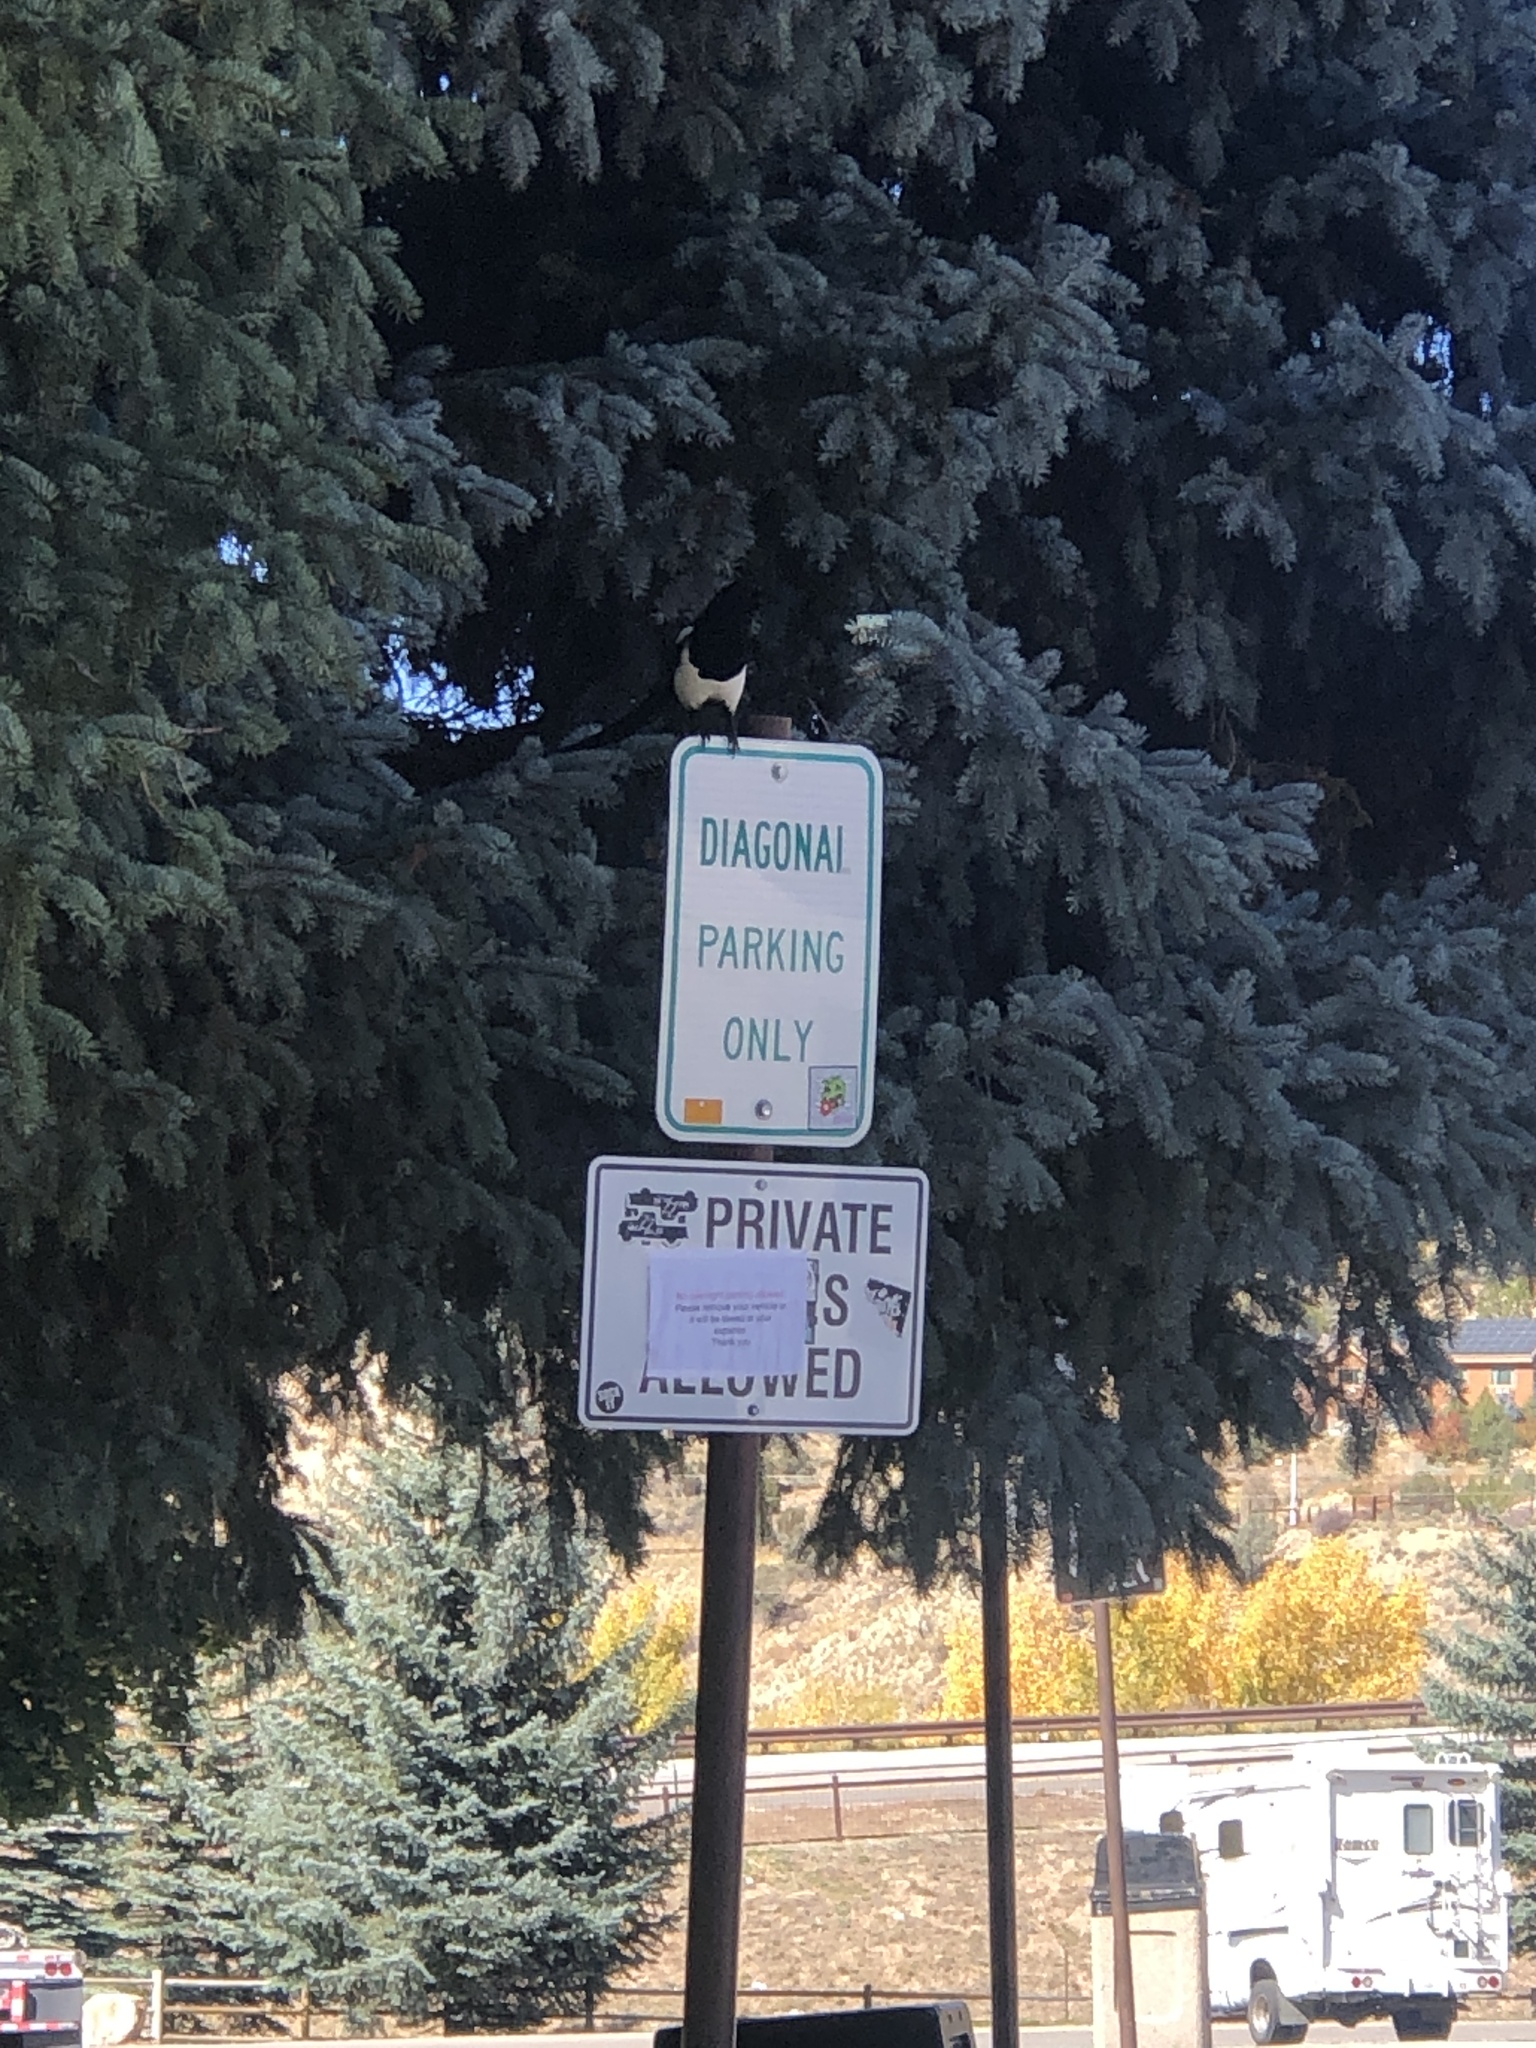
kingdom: Animalia
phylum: Chordata
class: Aves
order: Passeriformes
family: Corvidae
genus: Pica
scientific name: Pica hudsonia
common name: Black-billed magpie
